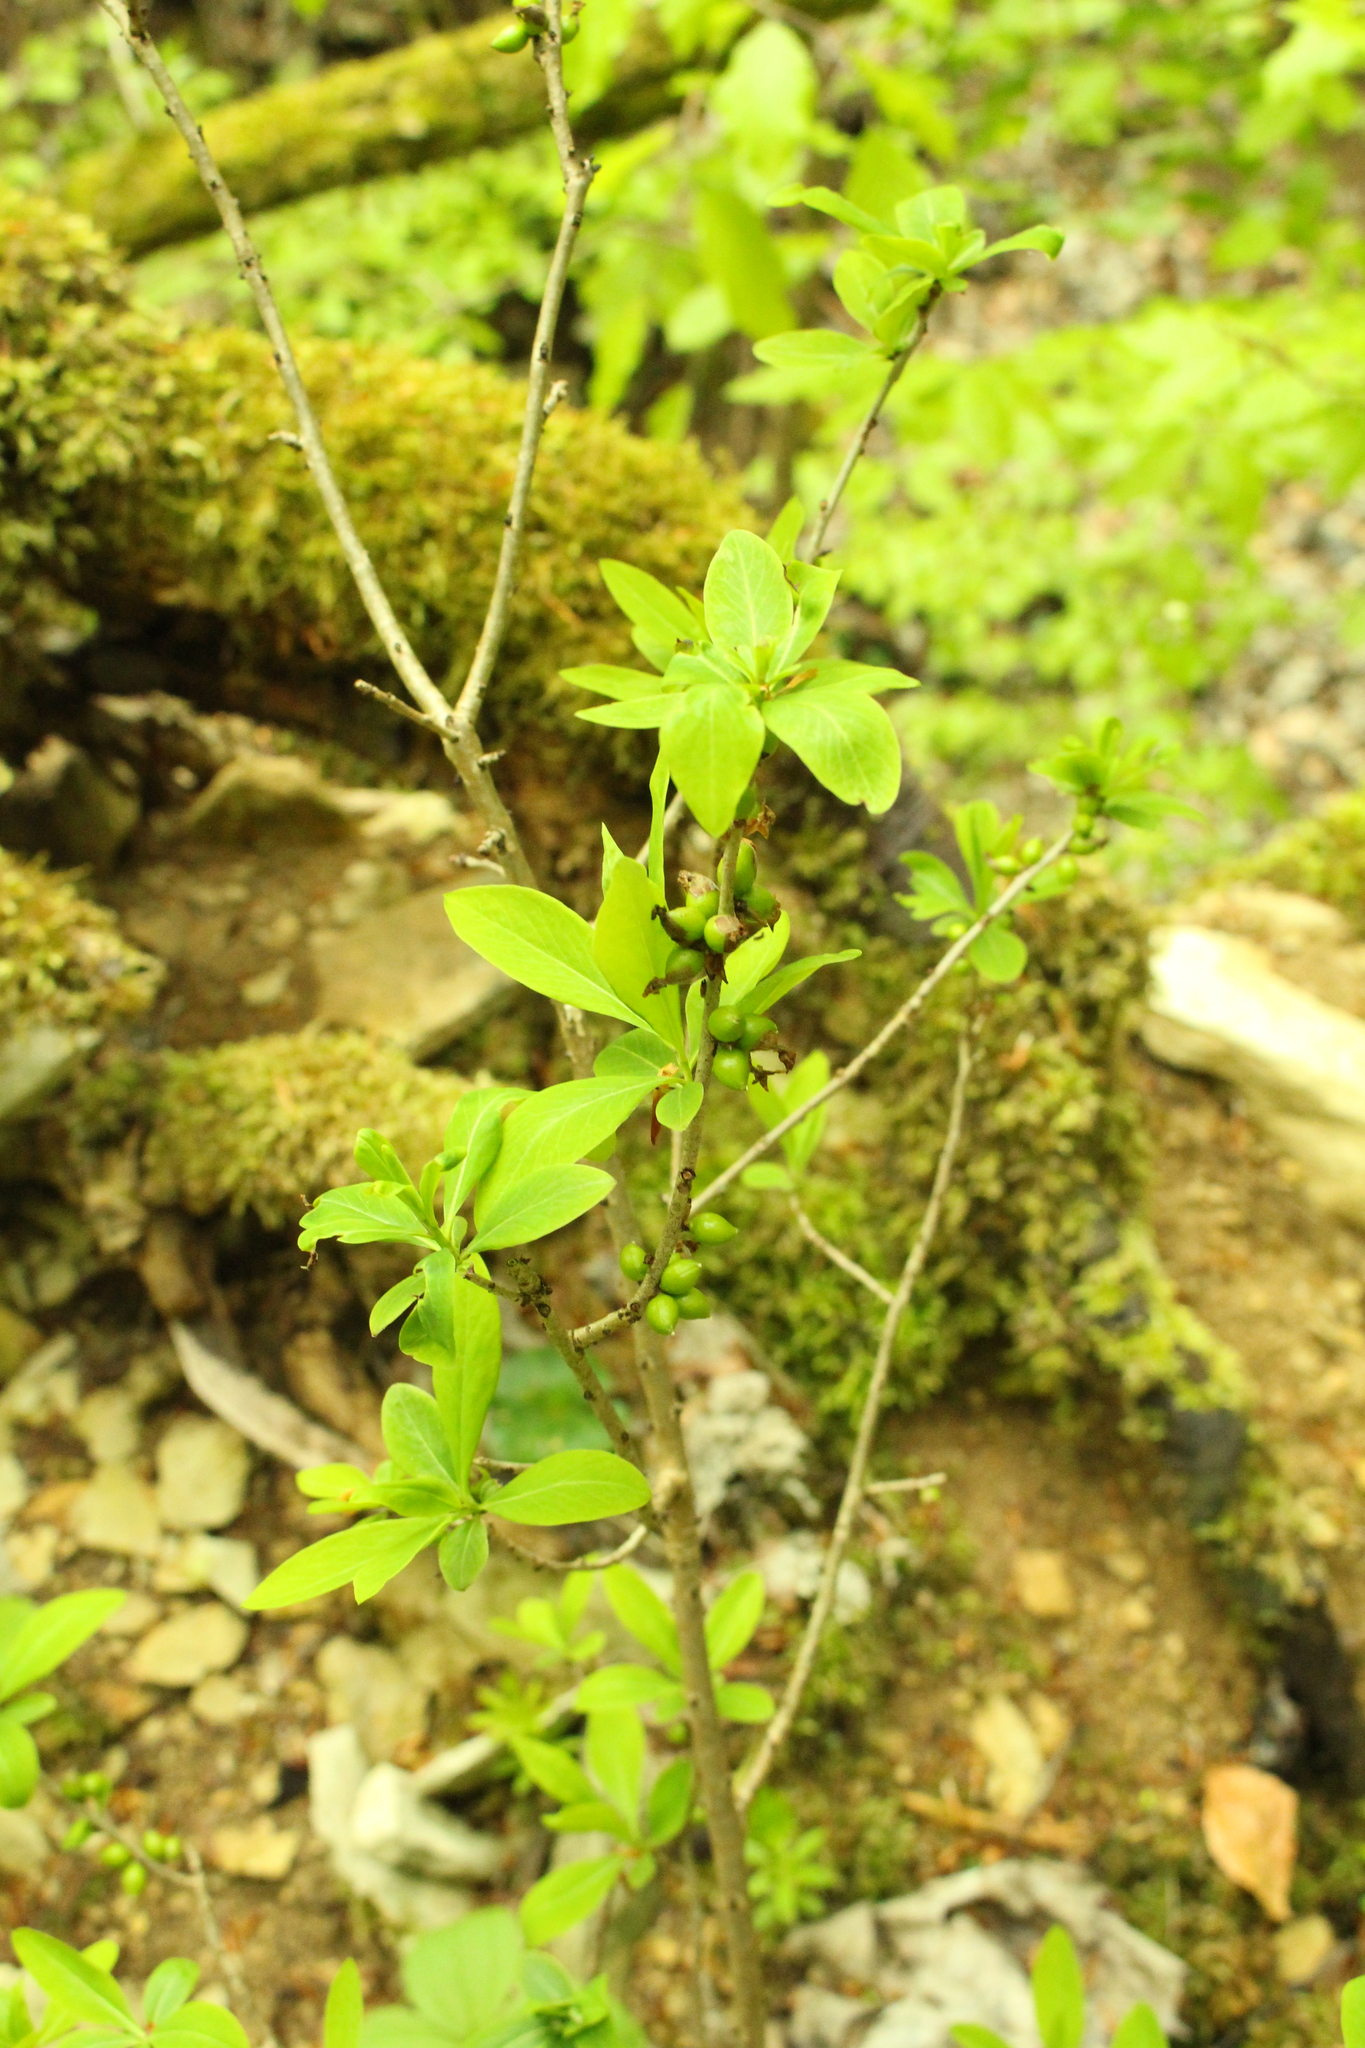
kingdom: Plantae
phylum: Tracheophyta
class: Magnoliopsida
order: Malvales
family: Thymelaeaceae
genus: Daphne
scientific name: Daphne mezereum
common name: Mezereon
